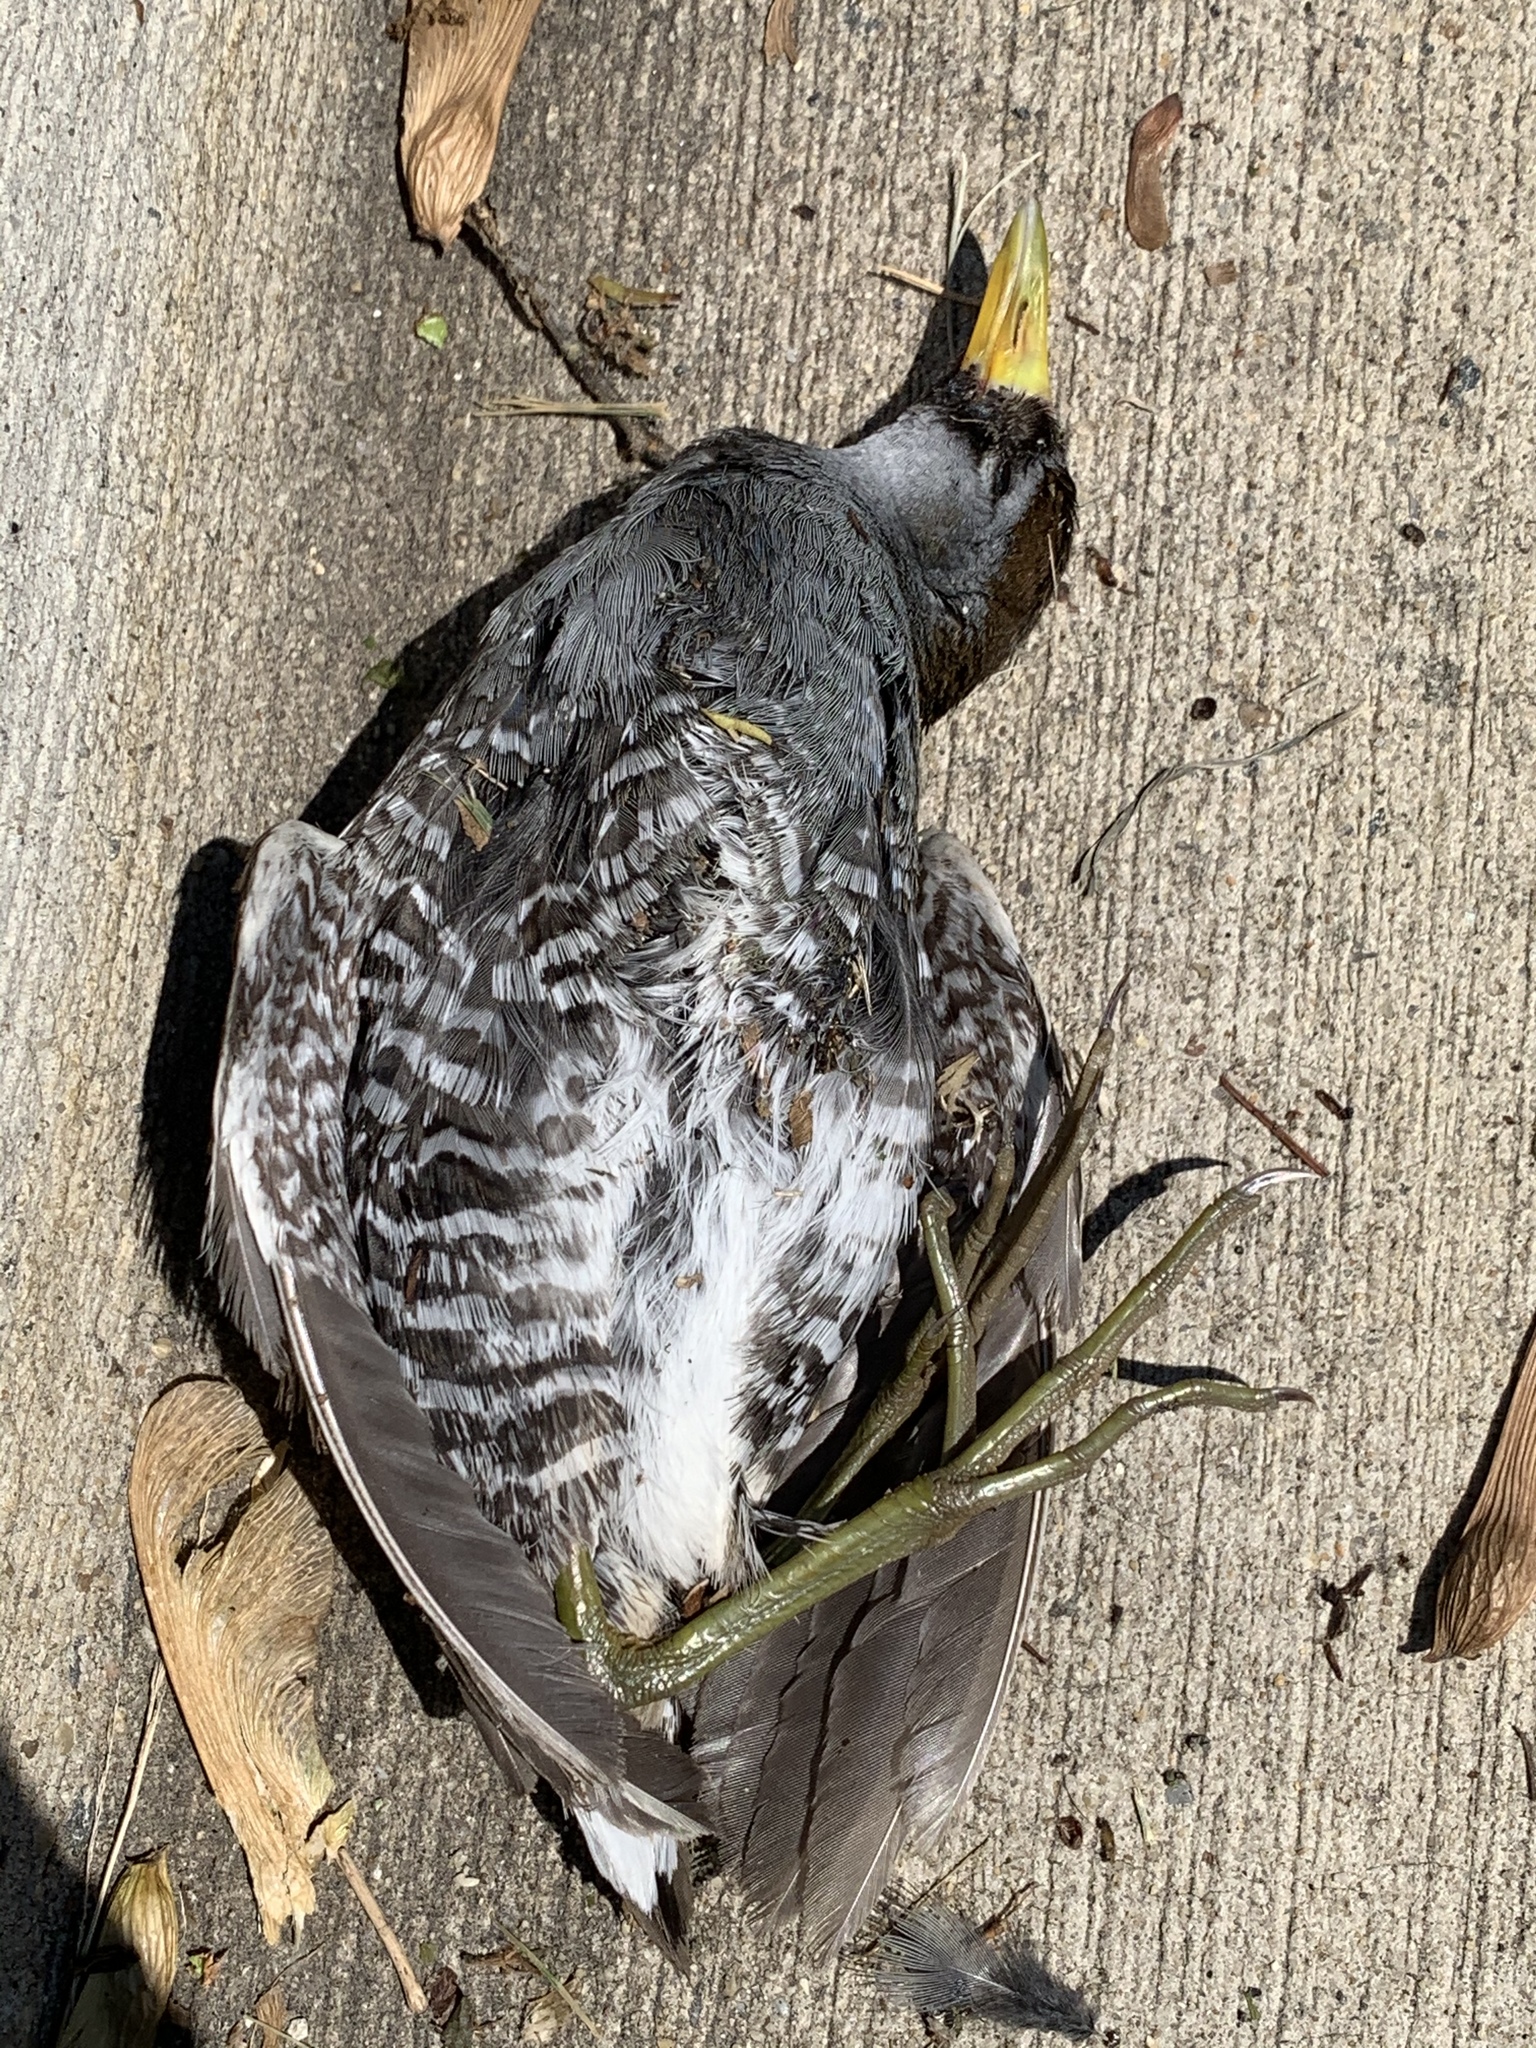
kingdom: Animalia
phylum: Chordata
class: Aves
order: Gruiformes
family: Rallidae
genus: Porzana
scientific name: Porzana carolina
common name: Sora
